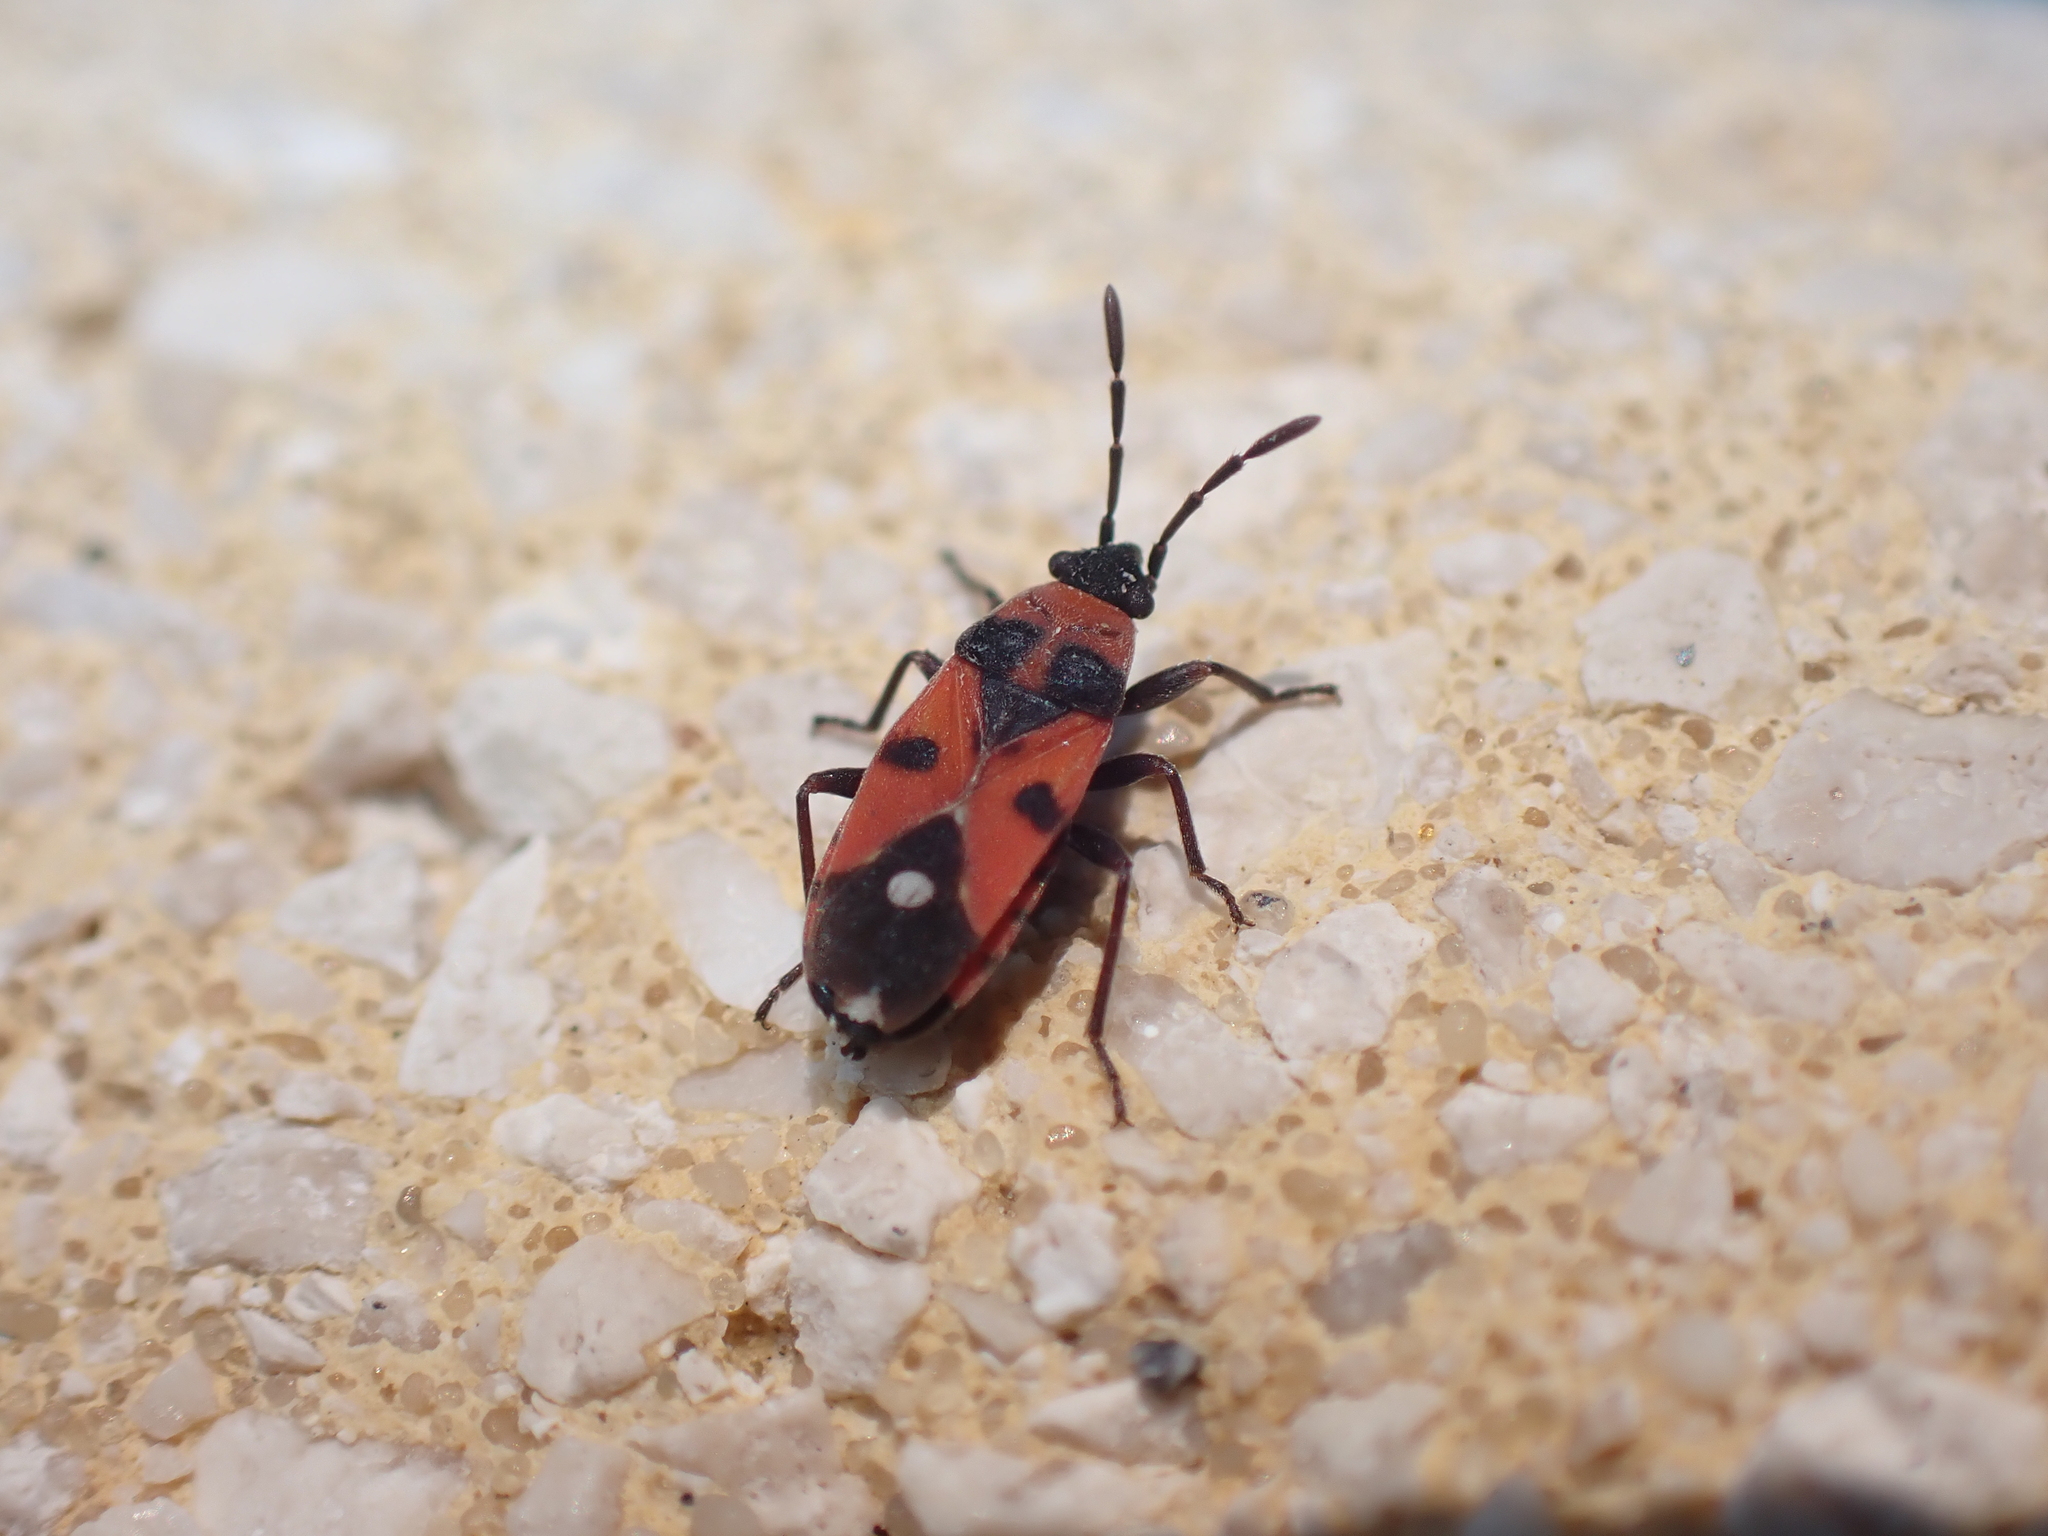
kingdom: Animalia
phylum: Arthropoda
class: Insecta
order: Hemiptera
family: Lygaeidae
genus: Horvathiolus
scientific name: Horvathiolus superbus
